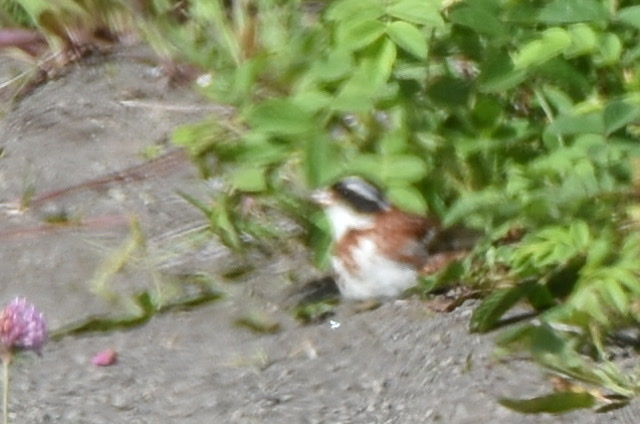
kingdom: Animalia
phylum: Chordata
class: Aves
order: Passeriformes
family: Emberizidae
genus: Emberiza
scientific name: Emberiza rustica
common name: Rustic bunting
